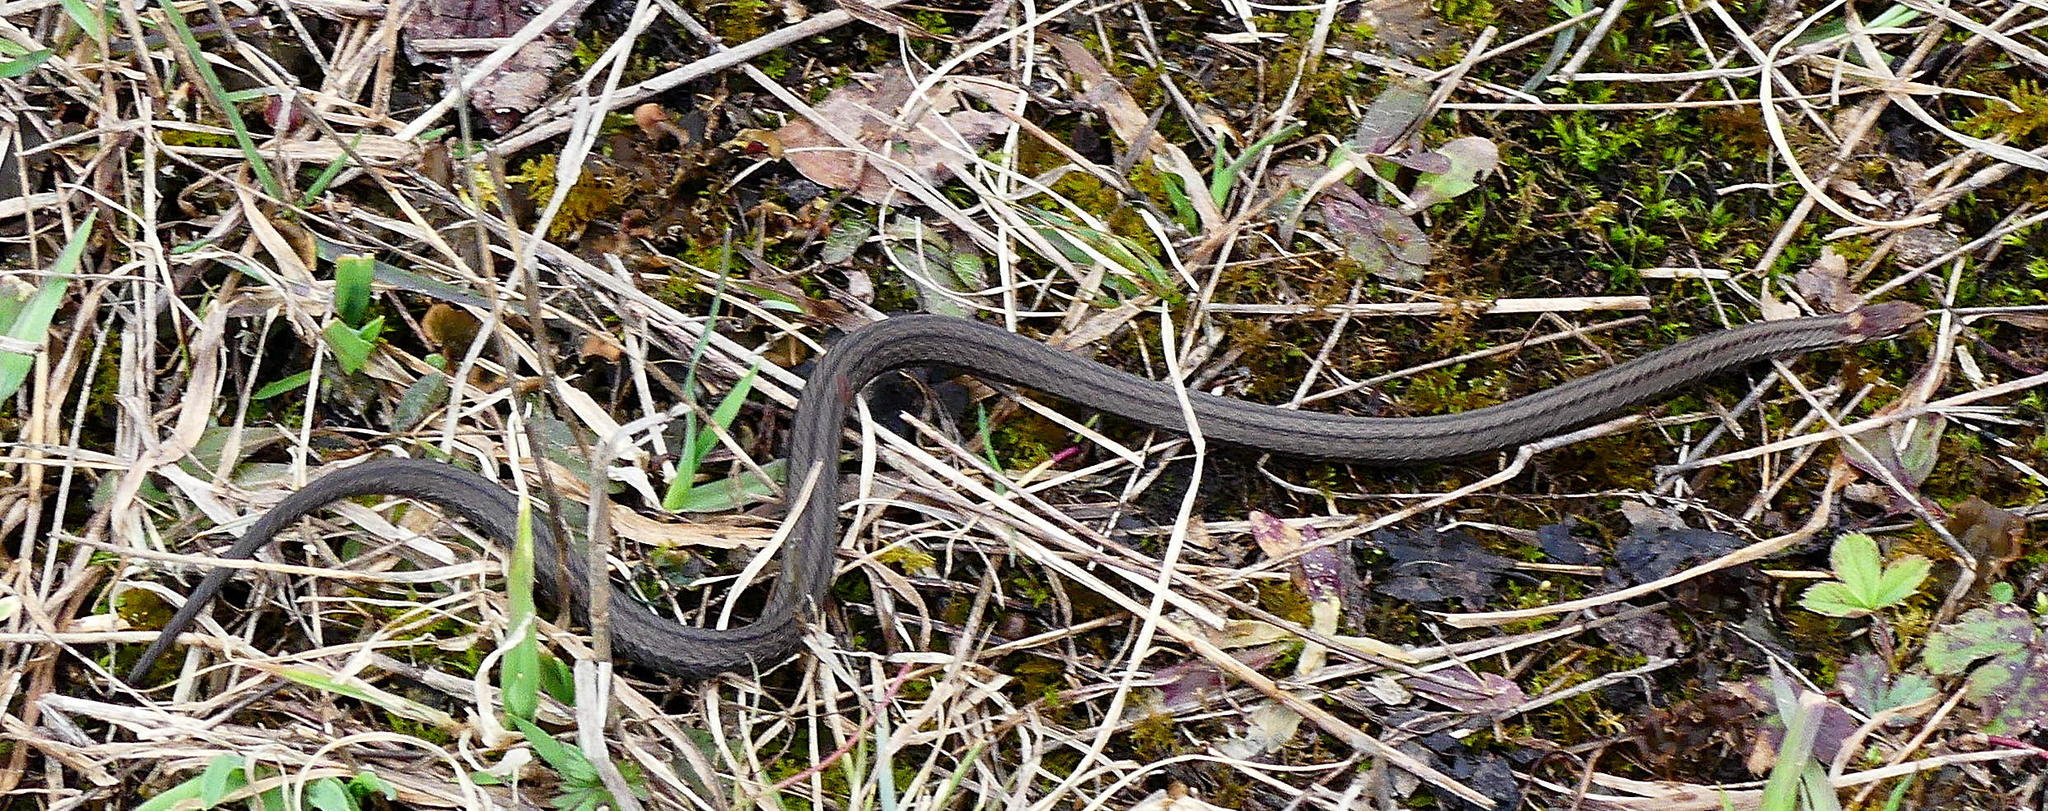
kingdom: Animalia
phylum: Chordata
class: Squamata
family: Colubridae
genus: Storeria
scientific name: Storeria occipitomaculata
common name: Redbelly snake
